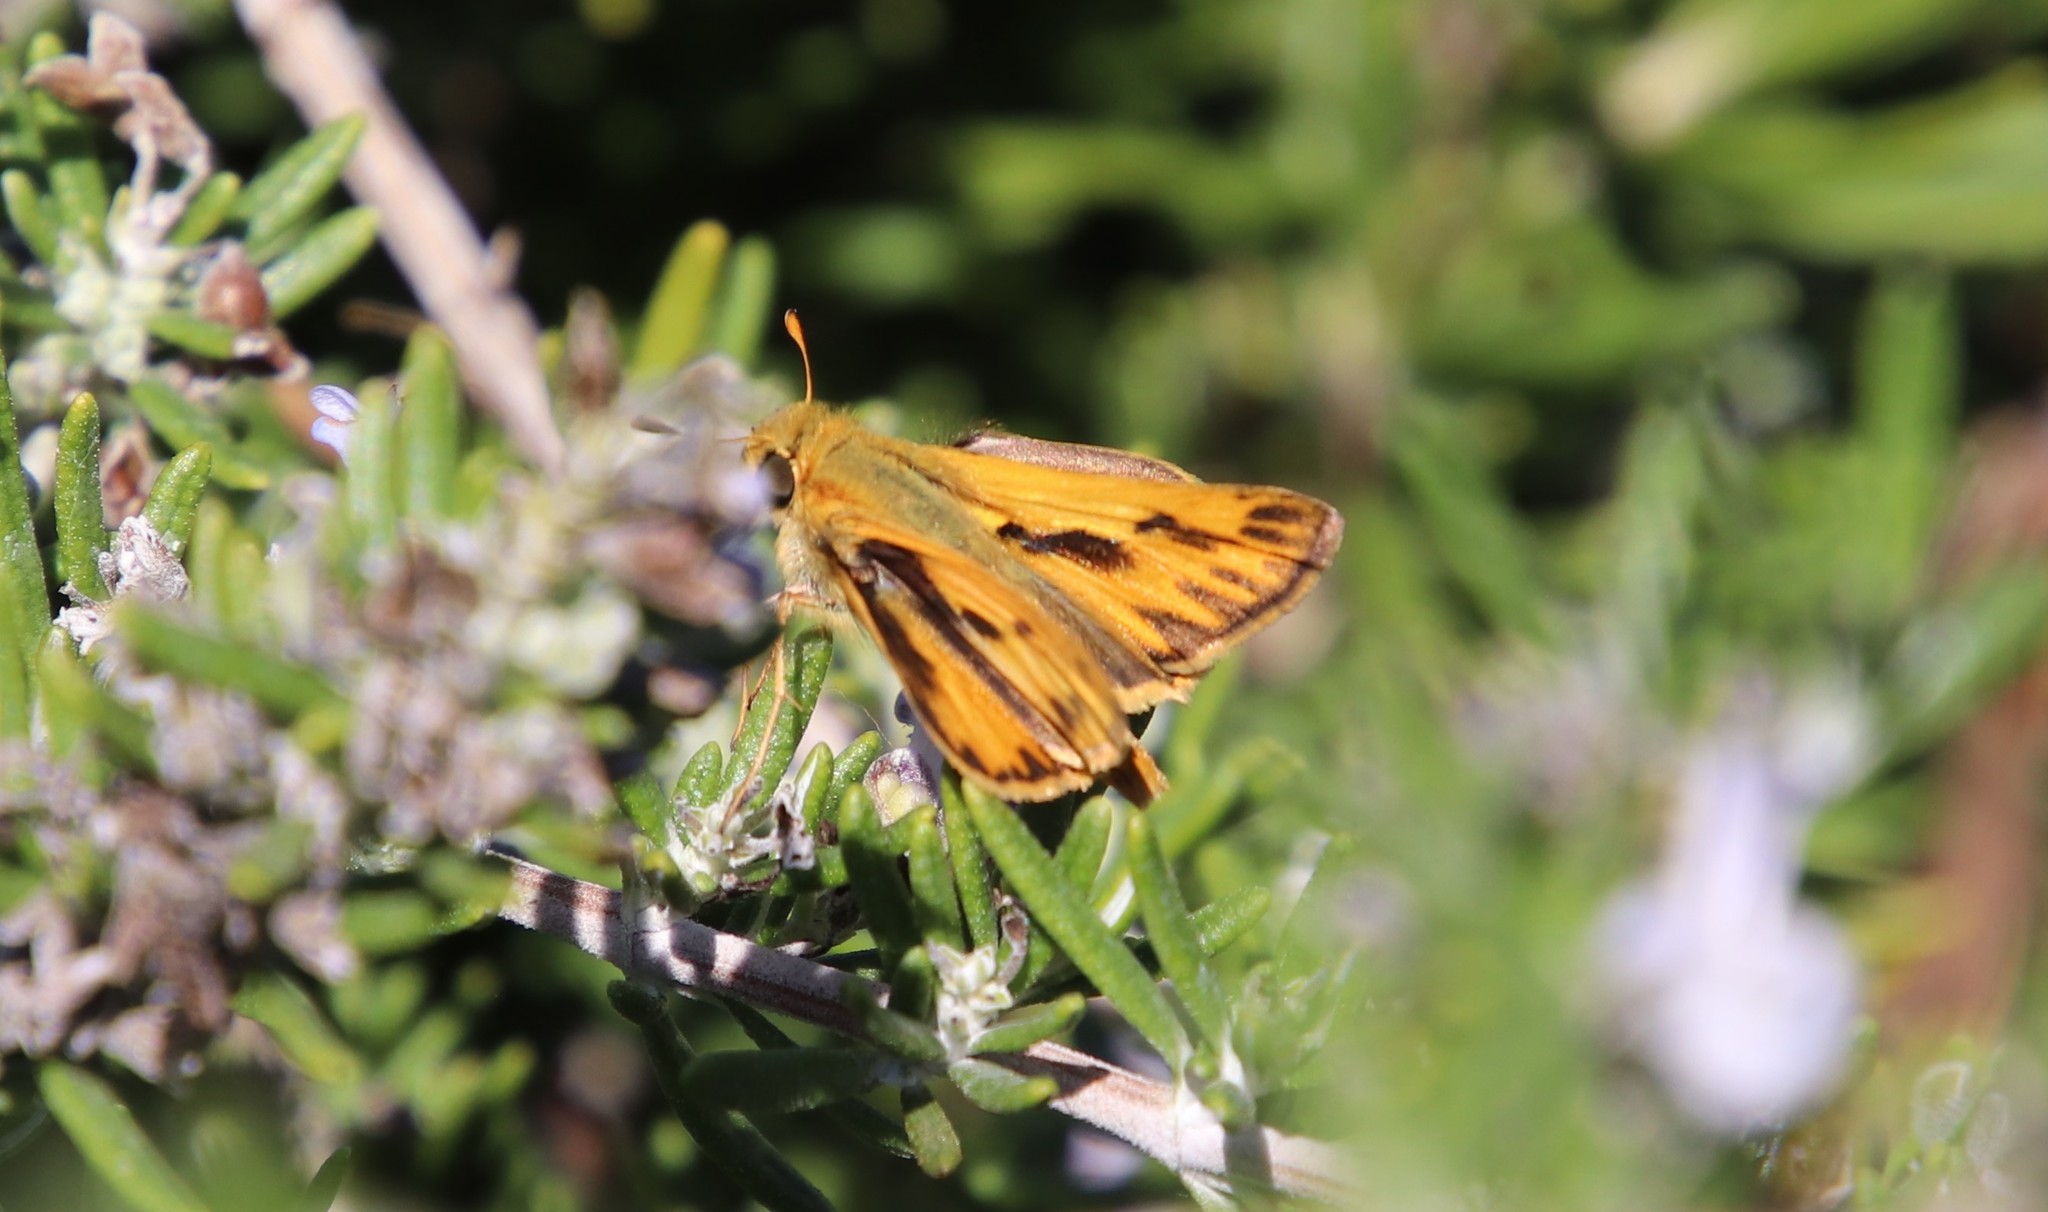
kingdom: Animalia
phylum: Arthropoda
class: Insecta
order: Lepidoptera
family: Hesperiidae
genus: Hylephila
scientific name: Hylephila phyleus
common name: Fiery skipper
